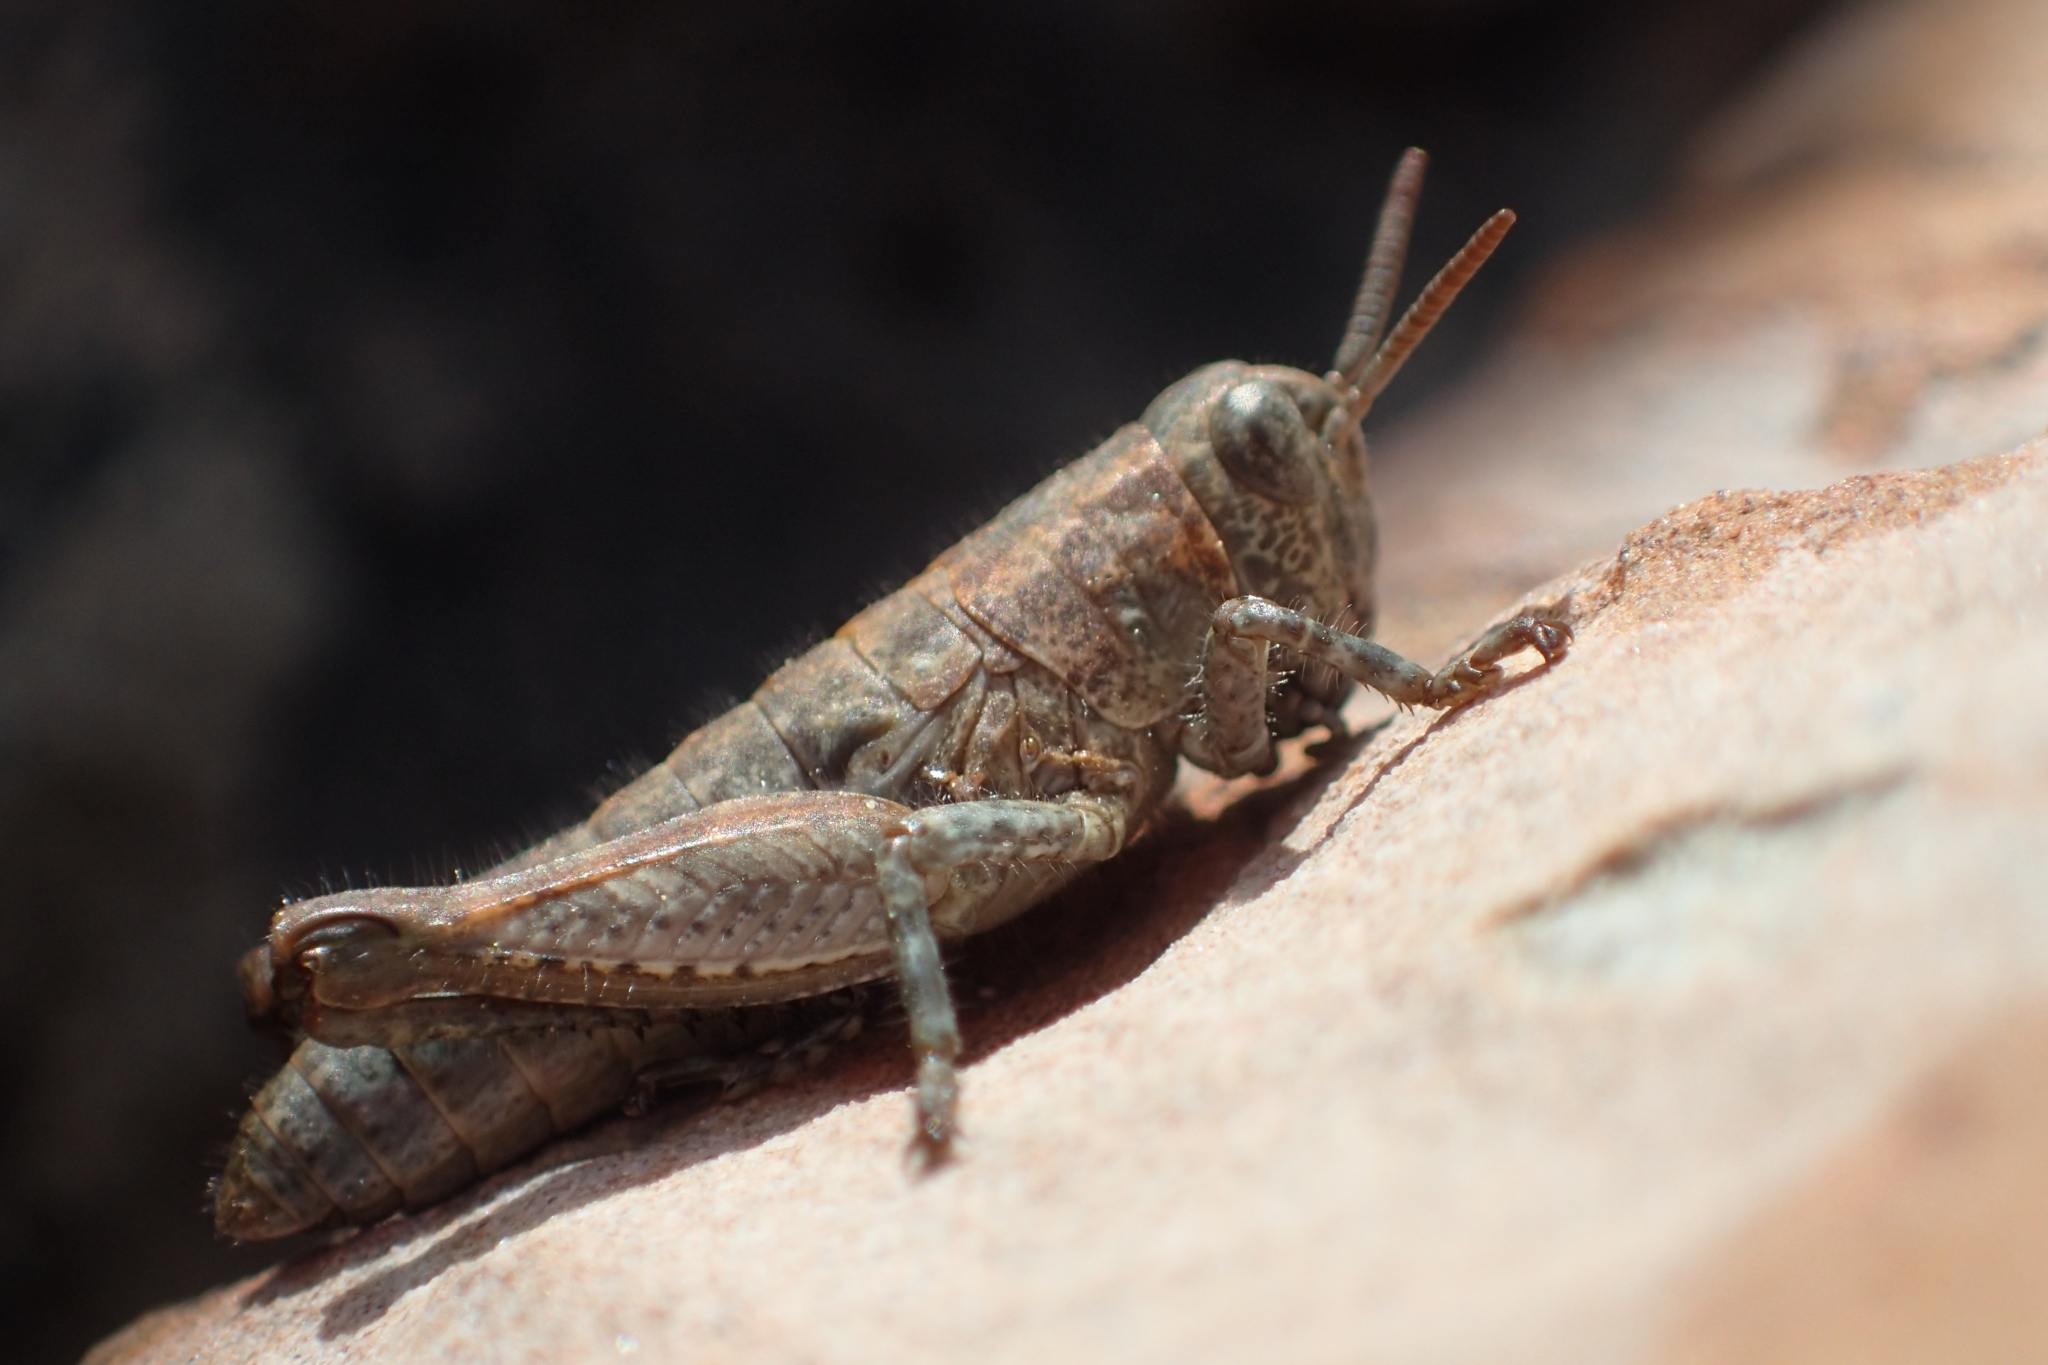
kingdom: Animalia
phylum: Arthropoda
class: Insecta
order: Orthoptera
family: Acrididae
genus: Sigaus
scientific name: Sigaus
